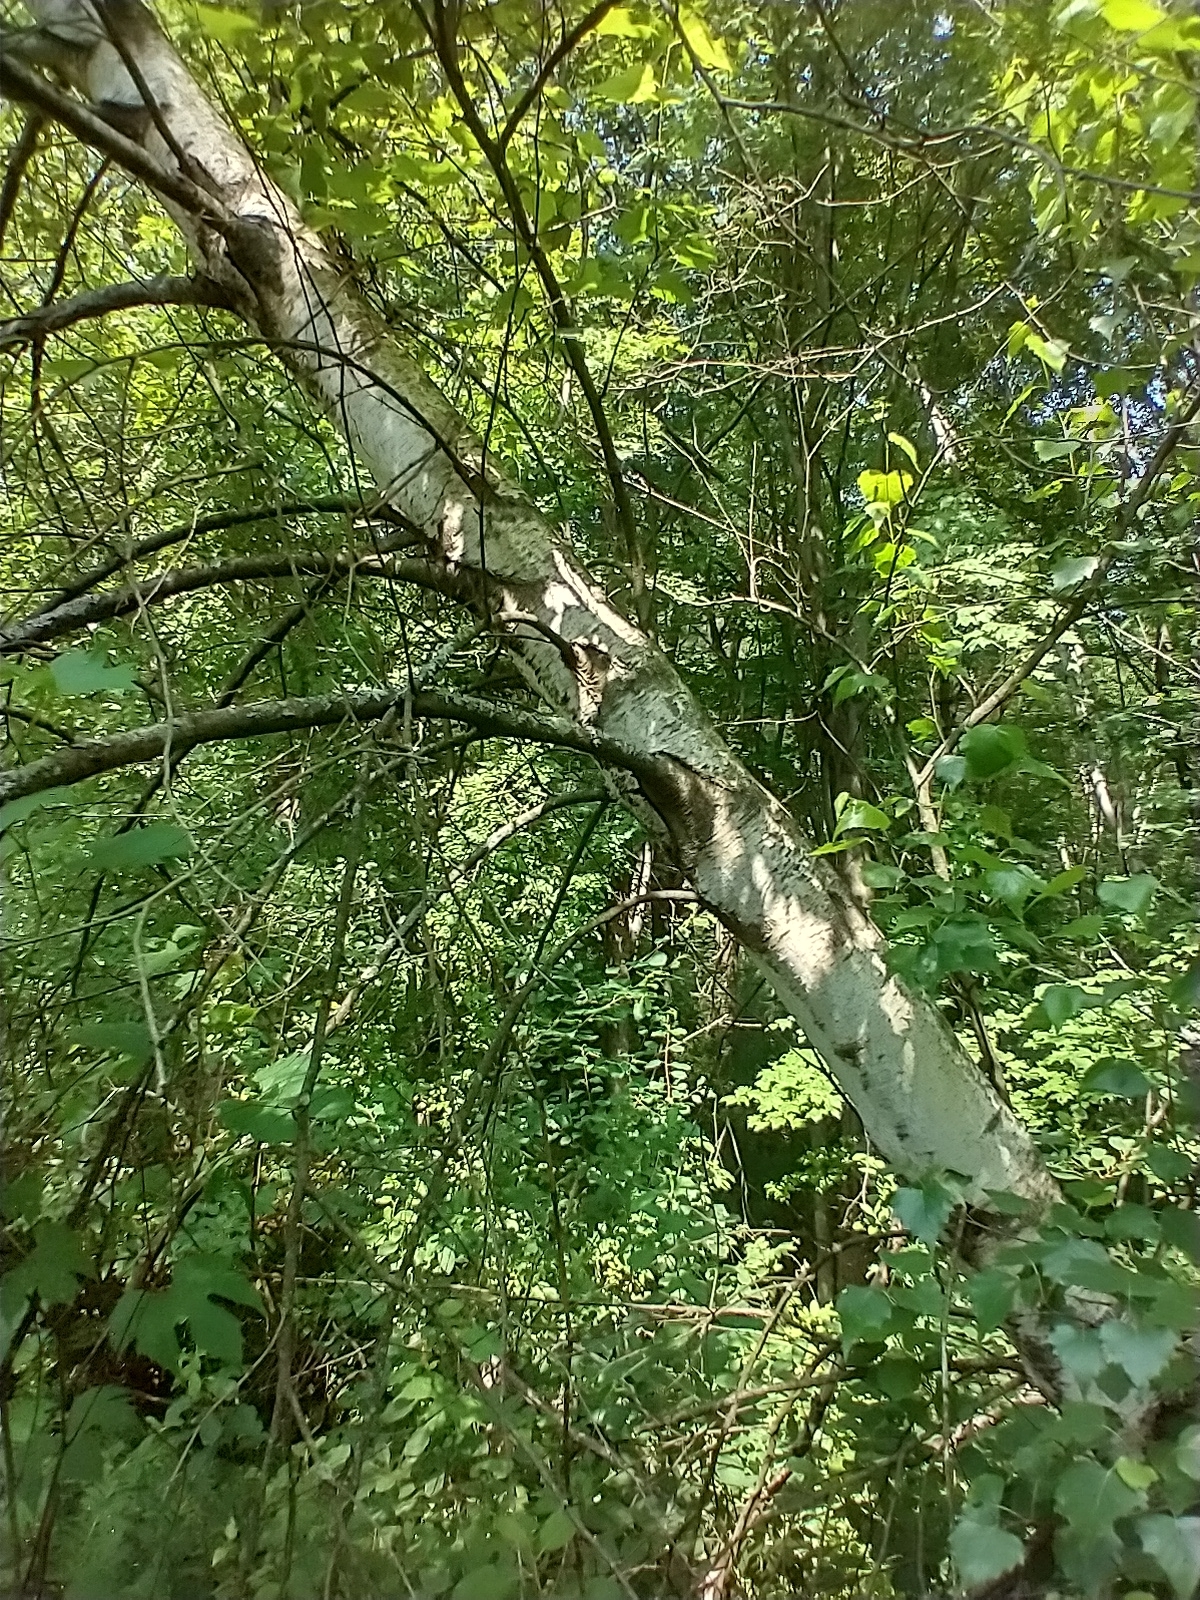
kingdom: Plantae
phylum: Tracheophyta
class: Magnoliopsida
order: Fagales
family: Betulaceae
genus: Betula
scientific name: Betula populifolia
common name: Fire birch
